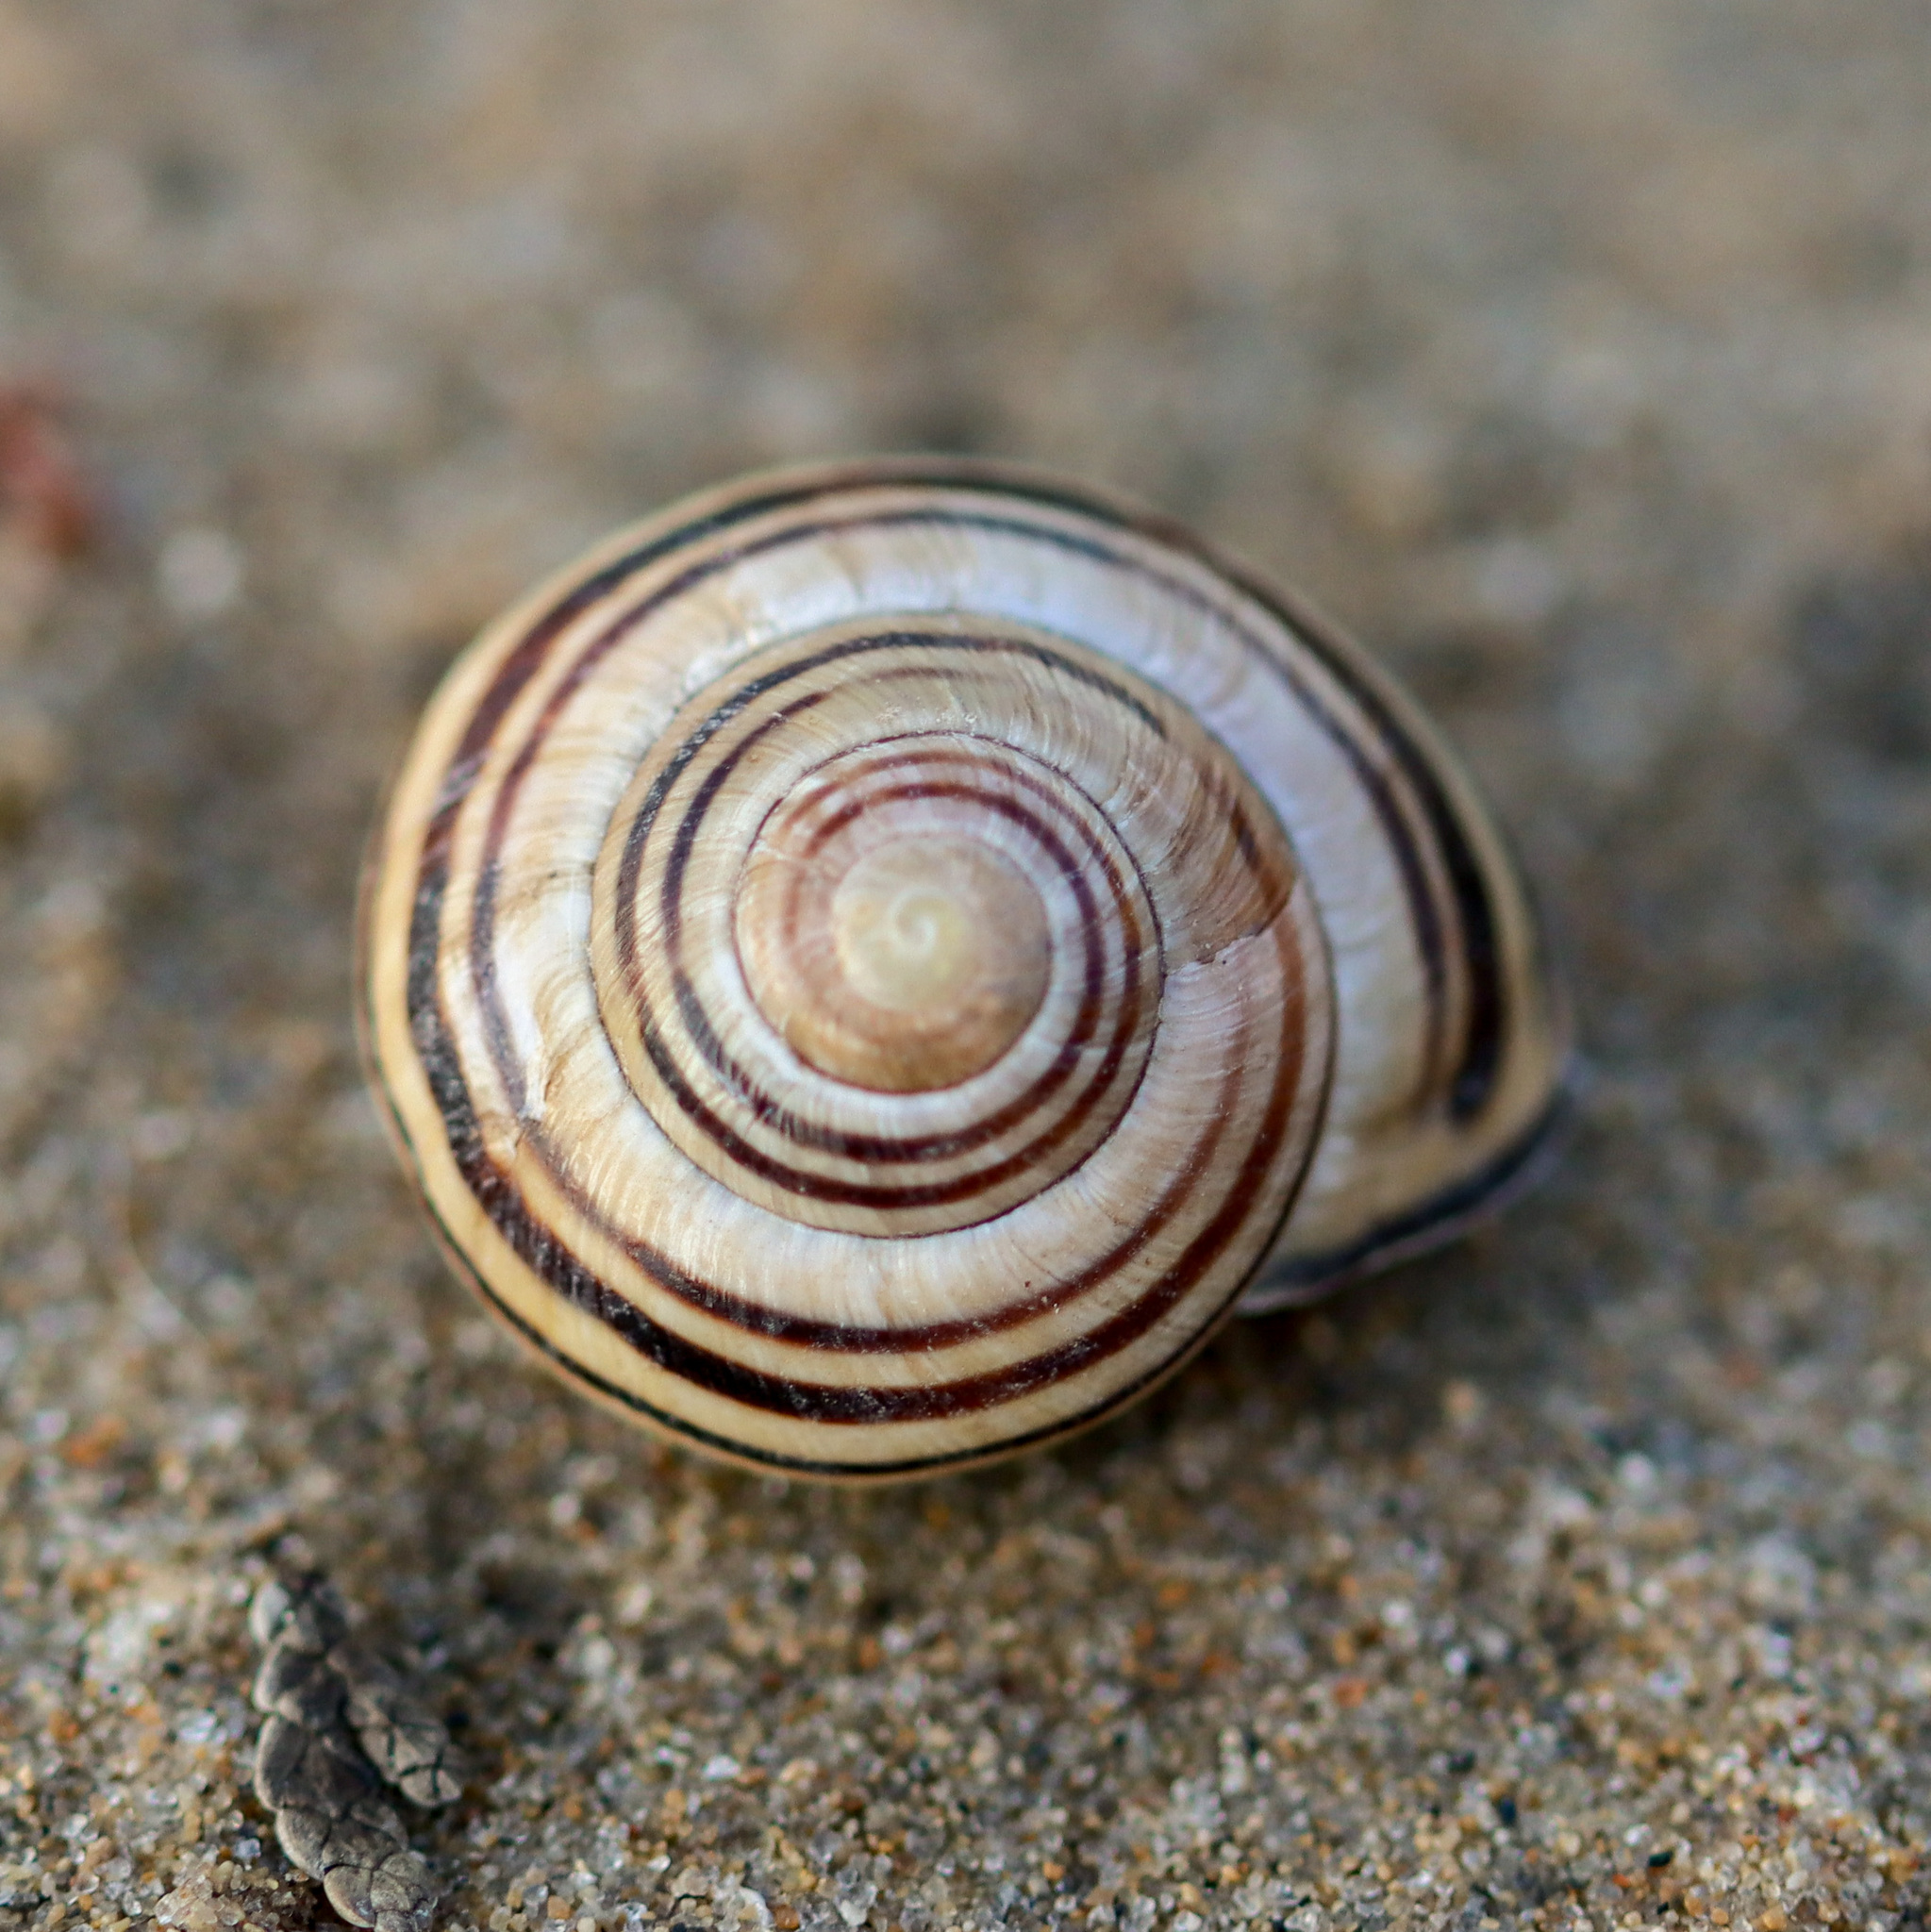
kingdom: Animalia
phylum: Mollusca
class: Gastropoda
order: Stylommatophora
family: Helicidae
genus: Cepaea
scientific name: Cepaea nemoralis
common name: Grovesnail
